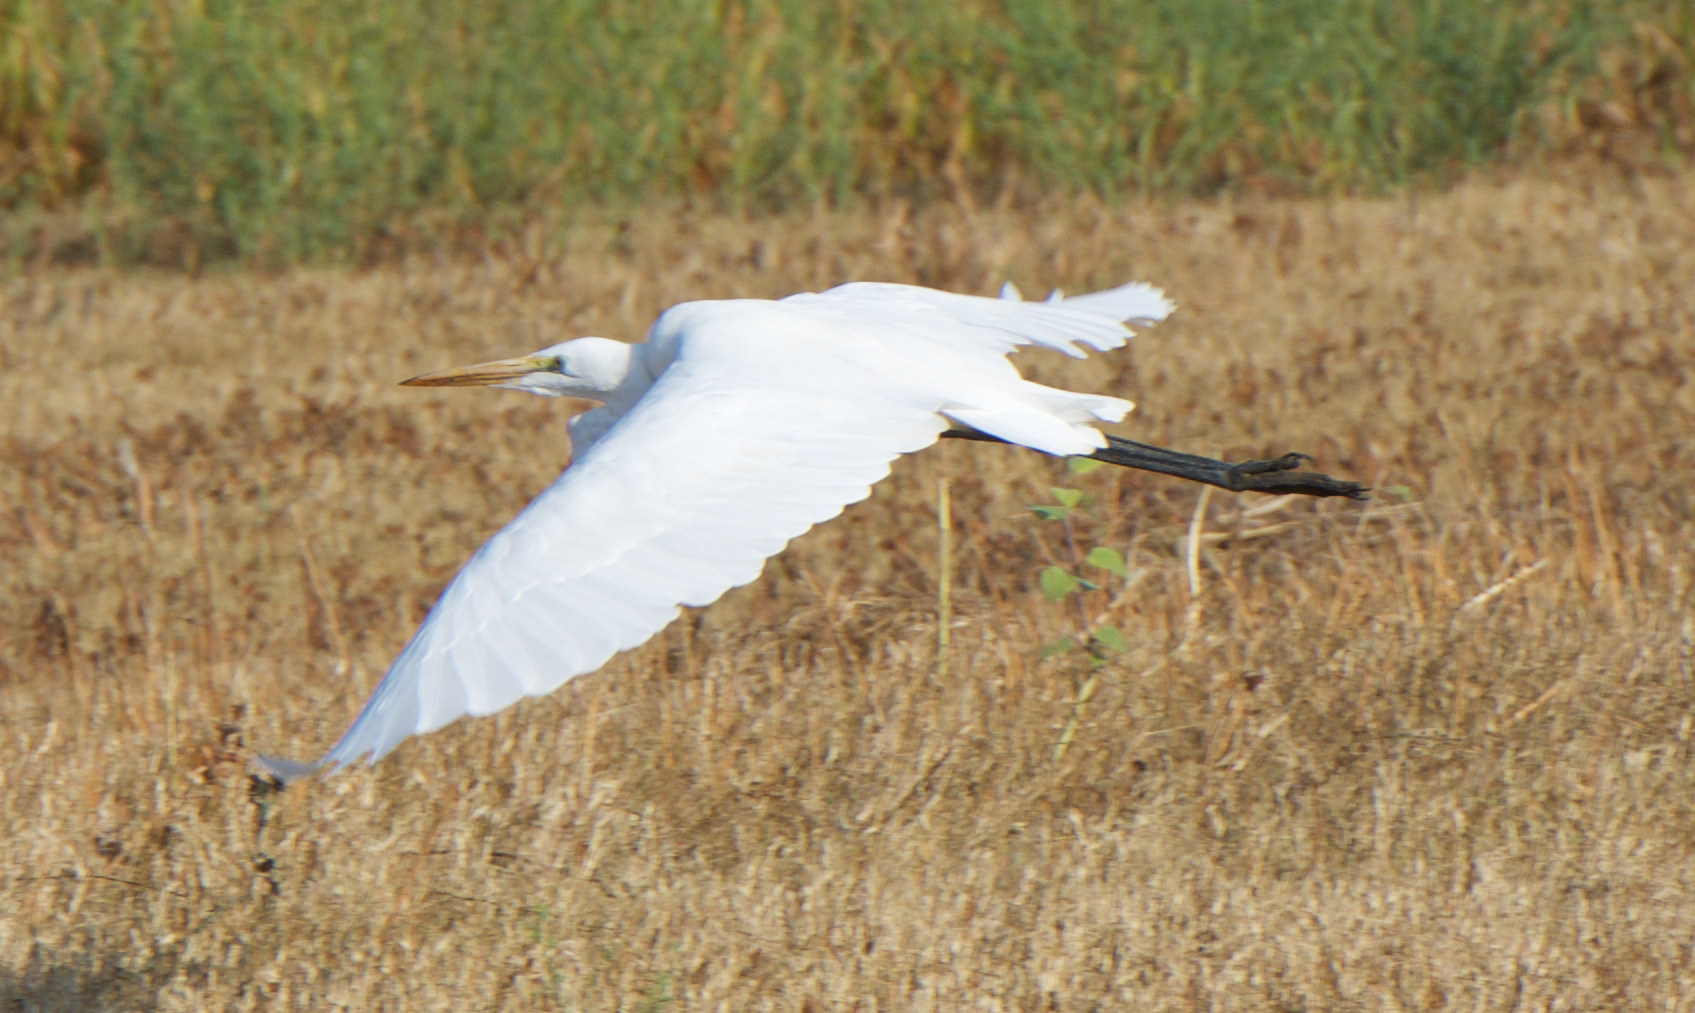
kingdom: Animalia
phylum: Chordata
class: Aves
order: Pelecaniformes
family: Ardeidae
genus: Ardea
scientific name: Ardea alba
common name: Great egret
